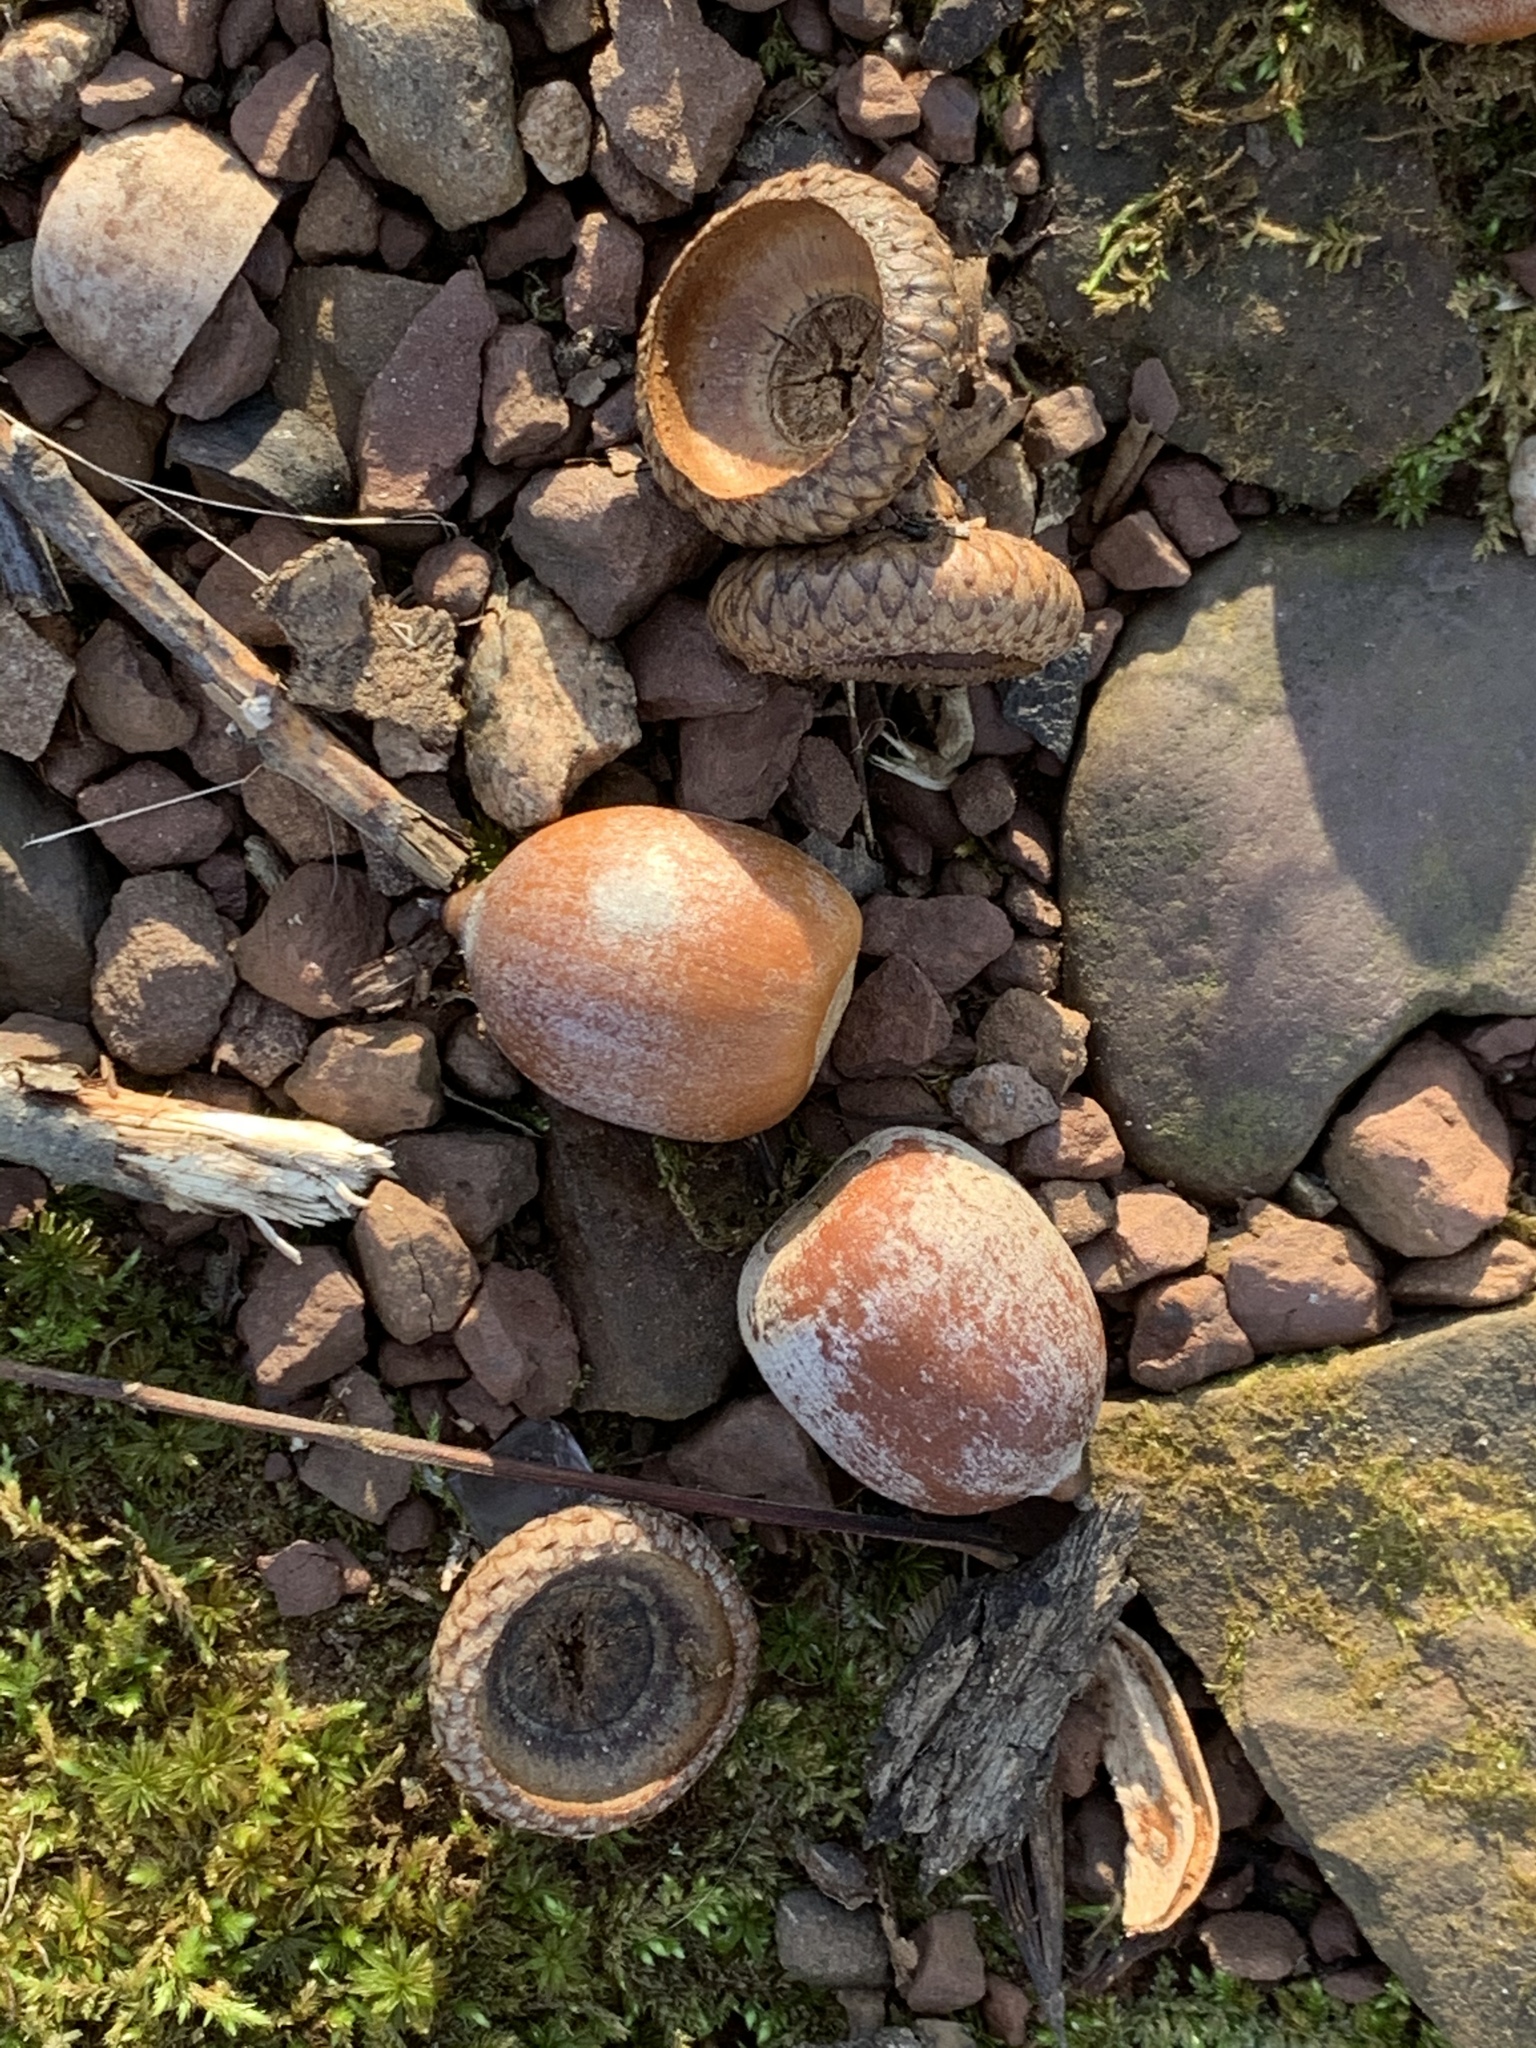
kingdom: Plantae
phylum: Tracheophyta
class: Magnoliopsida
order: Fagales
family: Fagaceae
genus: Quercus
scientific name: Quercus rubra
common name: Red oak
